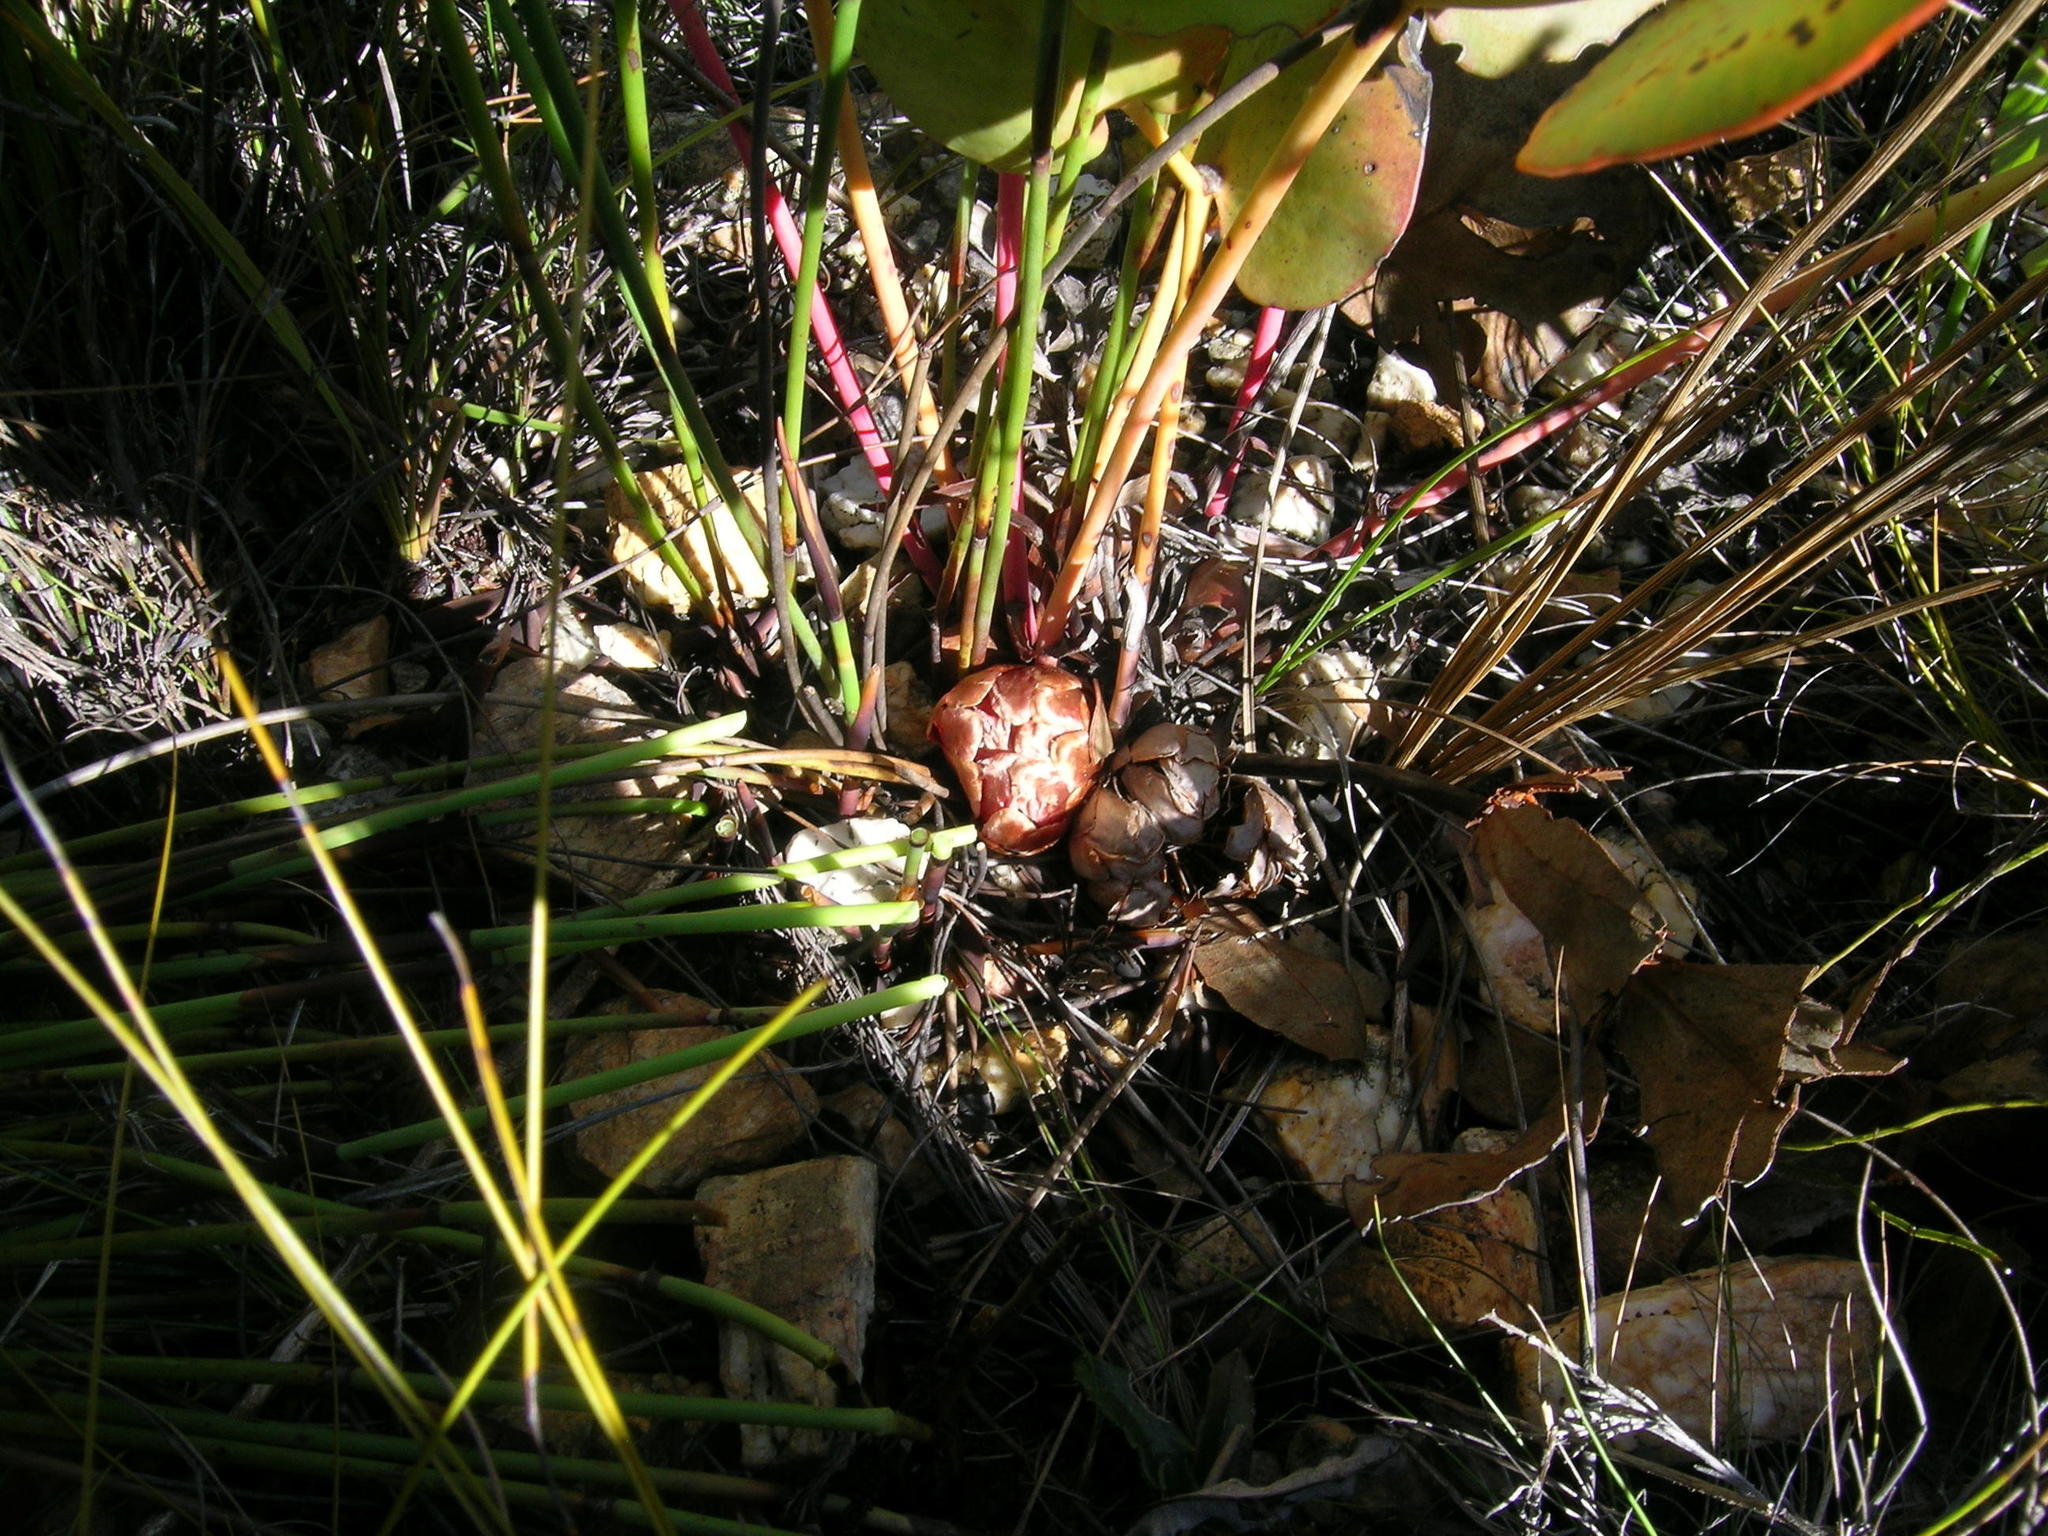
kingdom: Plantae
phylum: Tracheophyta
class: Magnoliopsida
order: Proteales
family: Proteaceae
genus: Protea
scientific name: Protea cordata
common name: Heart-leaf sugarbush
